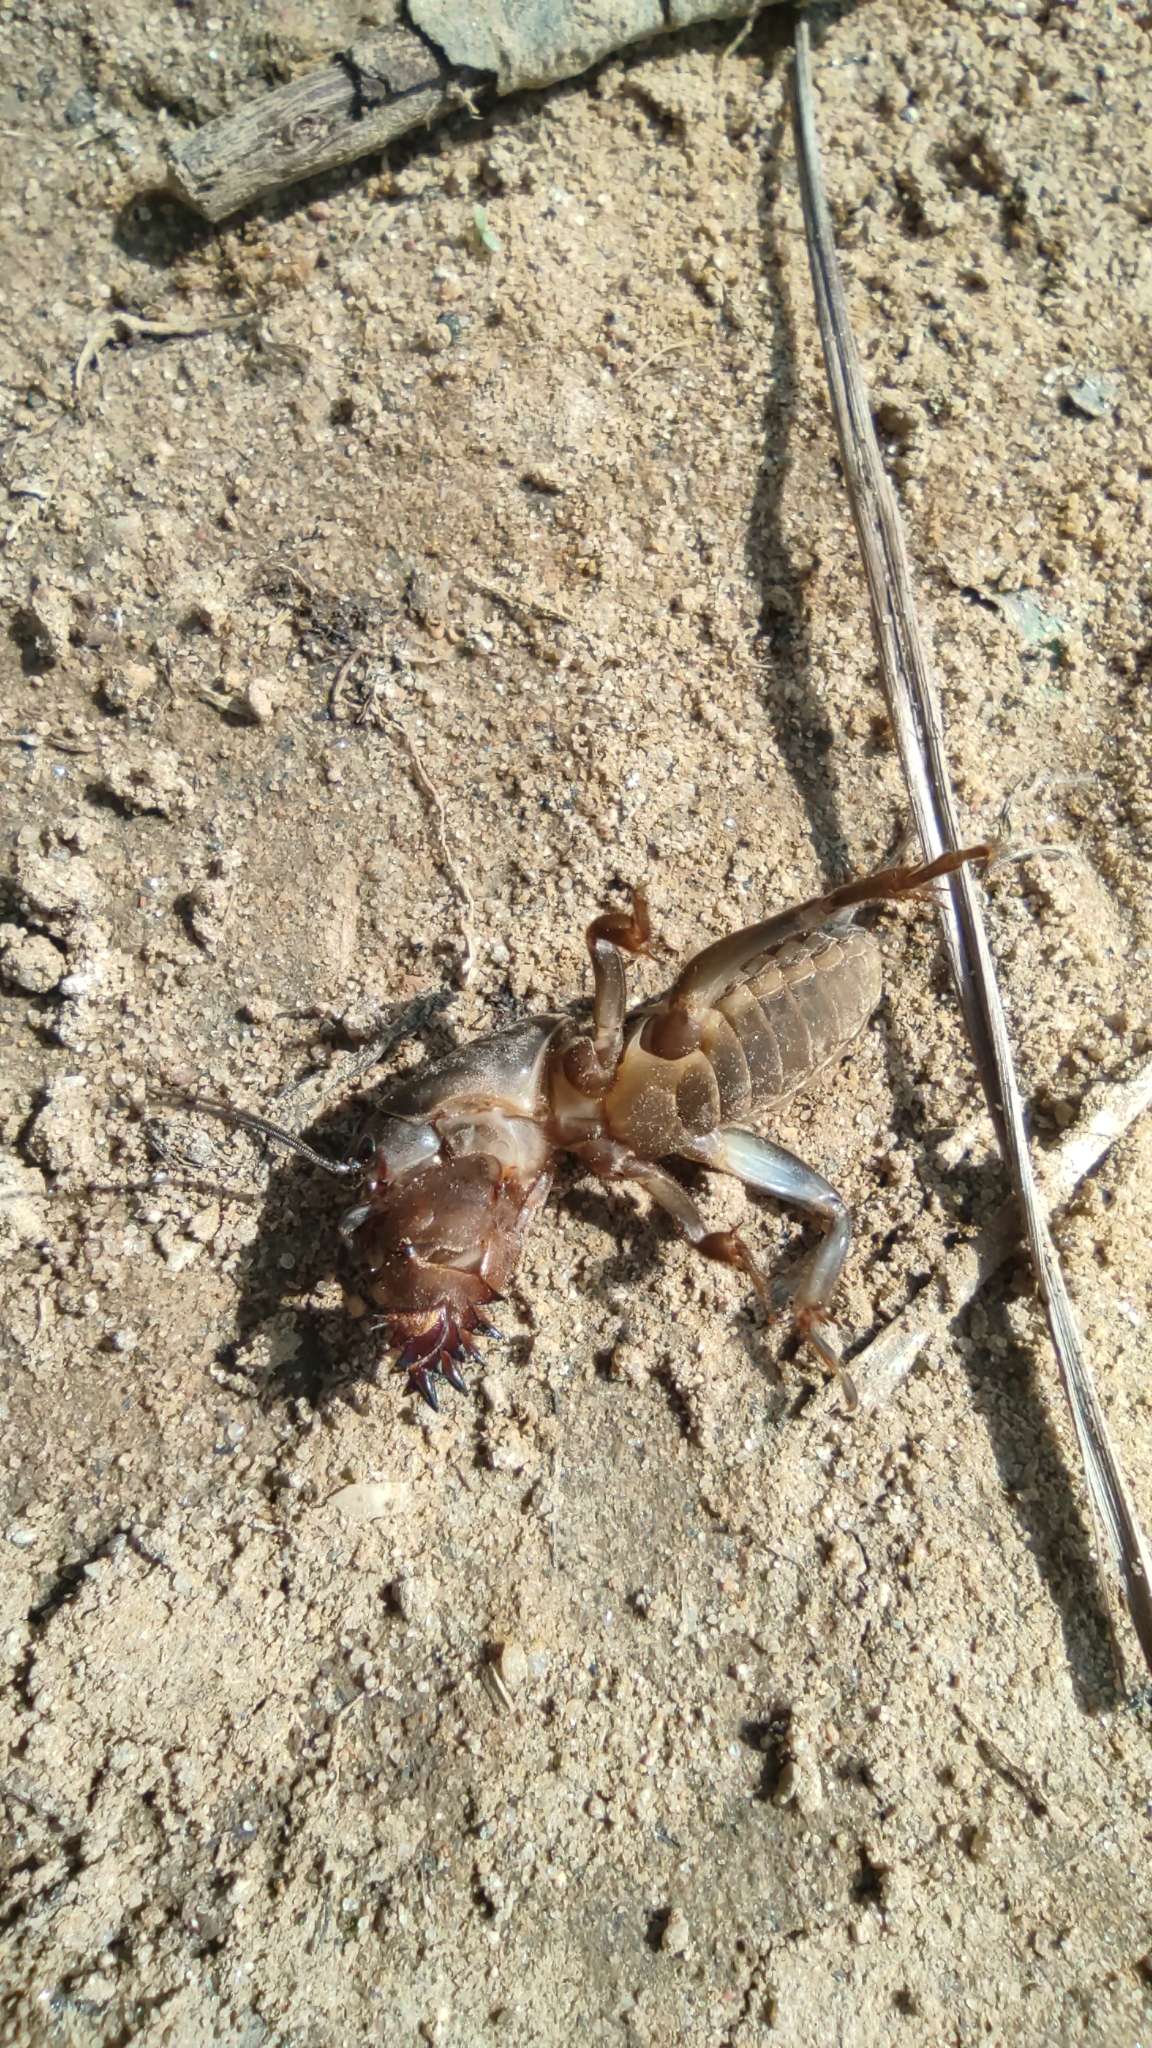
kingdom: Animalia
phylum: Arthropoda
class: Insecta
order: Orthoptera
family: Gryllotalpidae
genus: Gryllotalpa
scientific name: Gryllotalpa gryllotalpa
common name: European mole cricket
